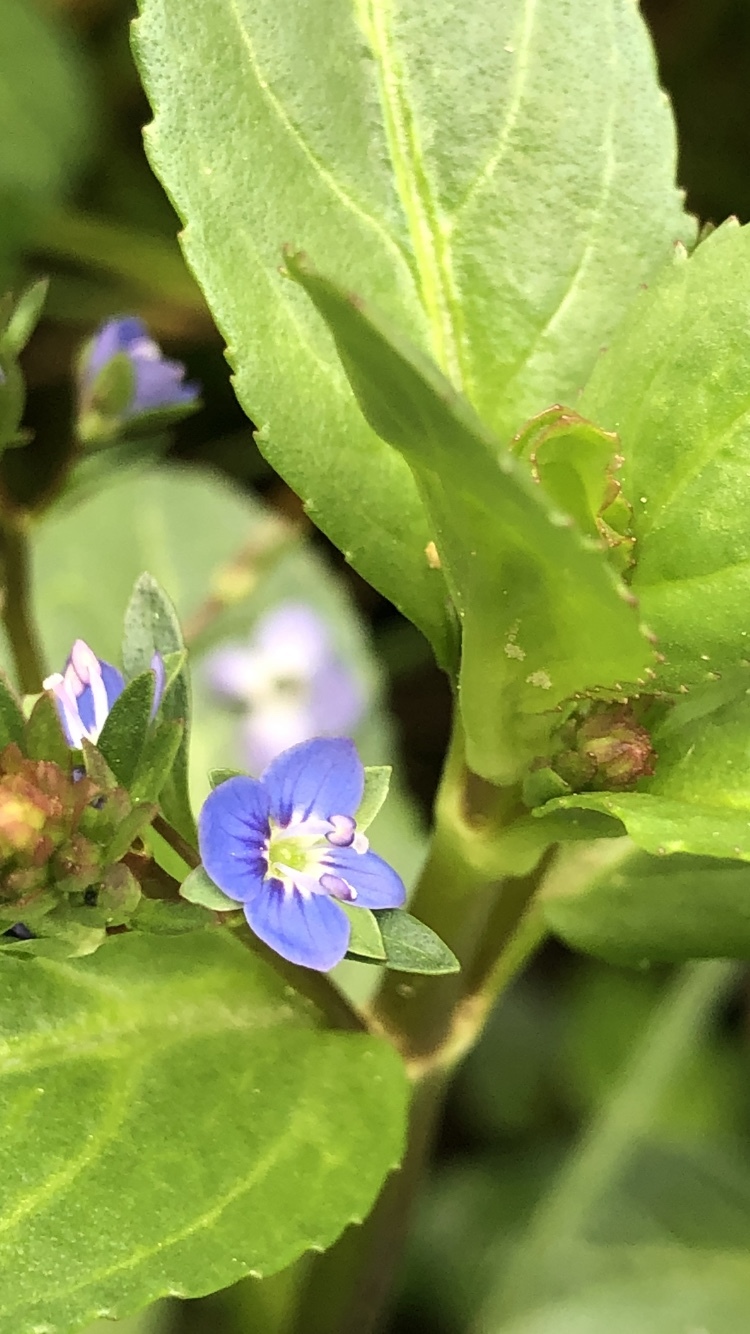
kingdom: Plantae
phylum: Tracheophyta
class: Magnoliopsida
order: Lamiales
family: Plantaginaceae
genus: Veronica
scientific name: Veronica beccabunga
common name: Brooklime
